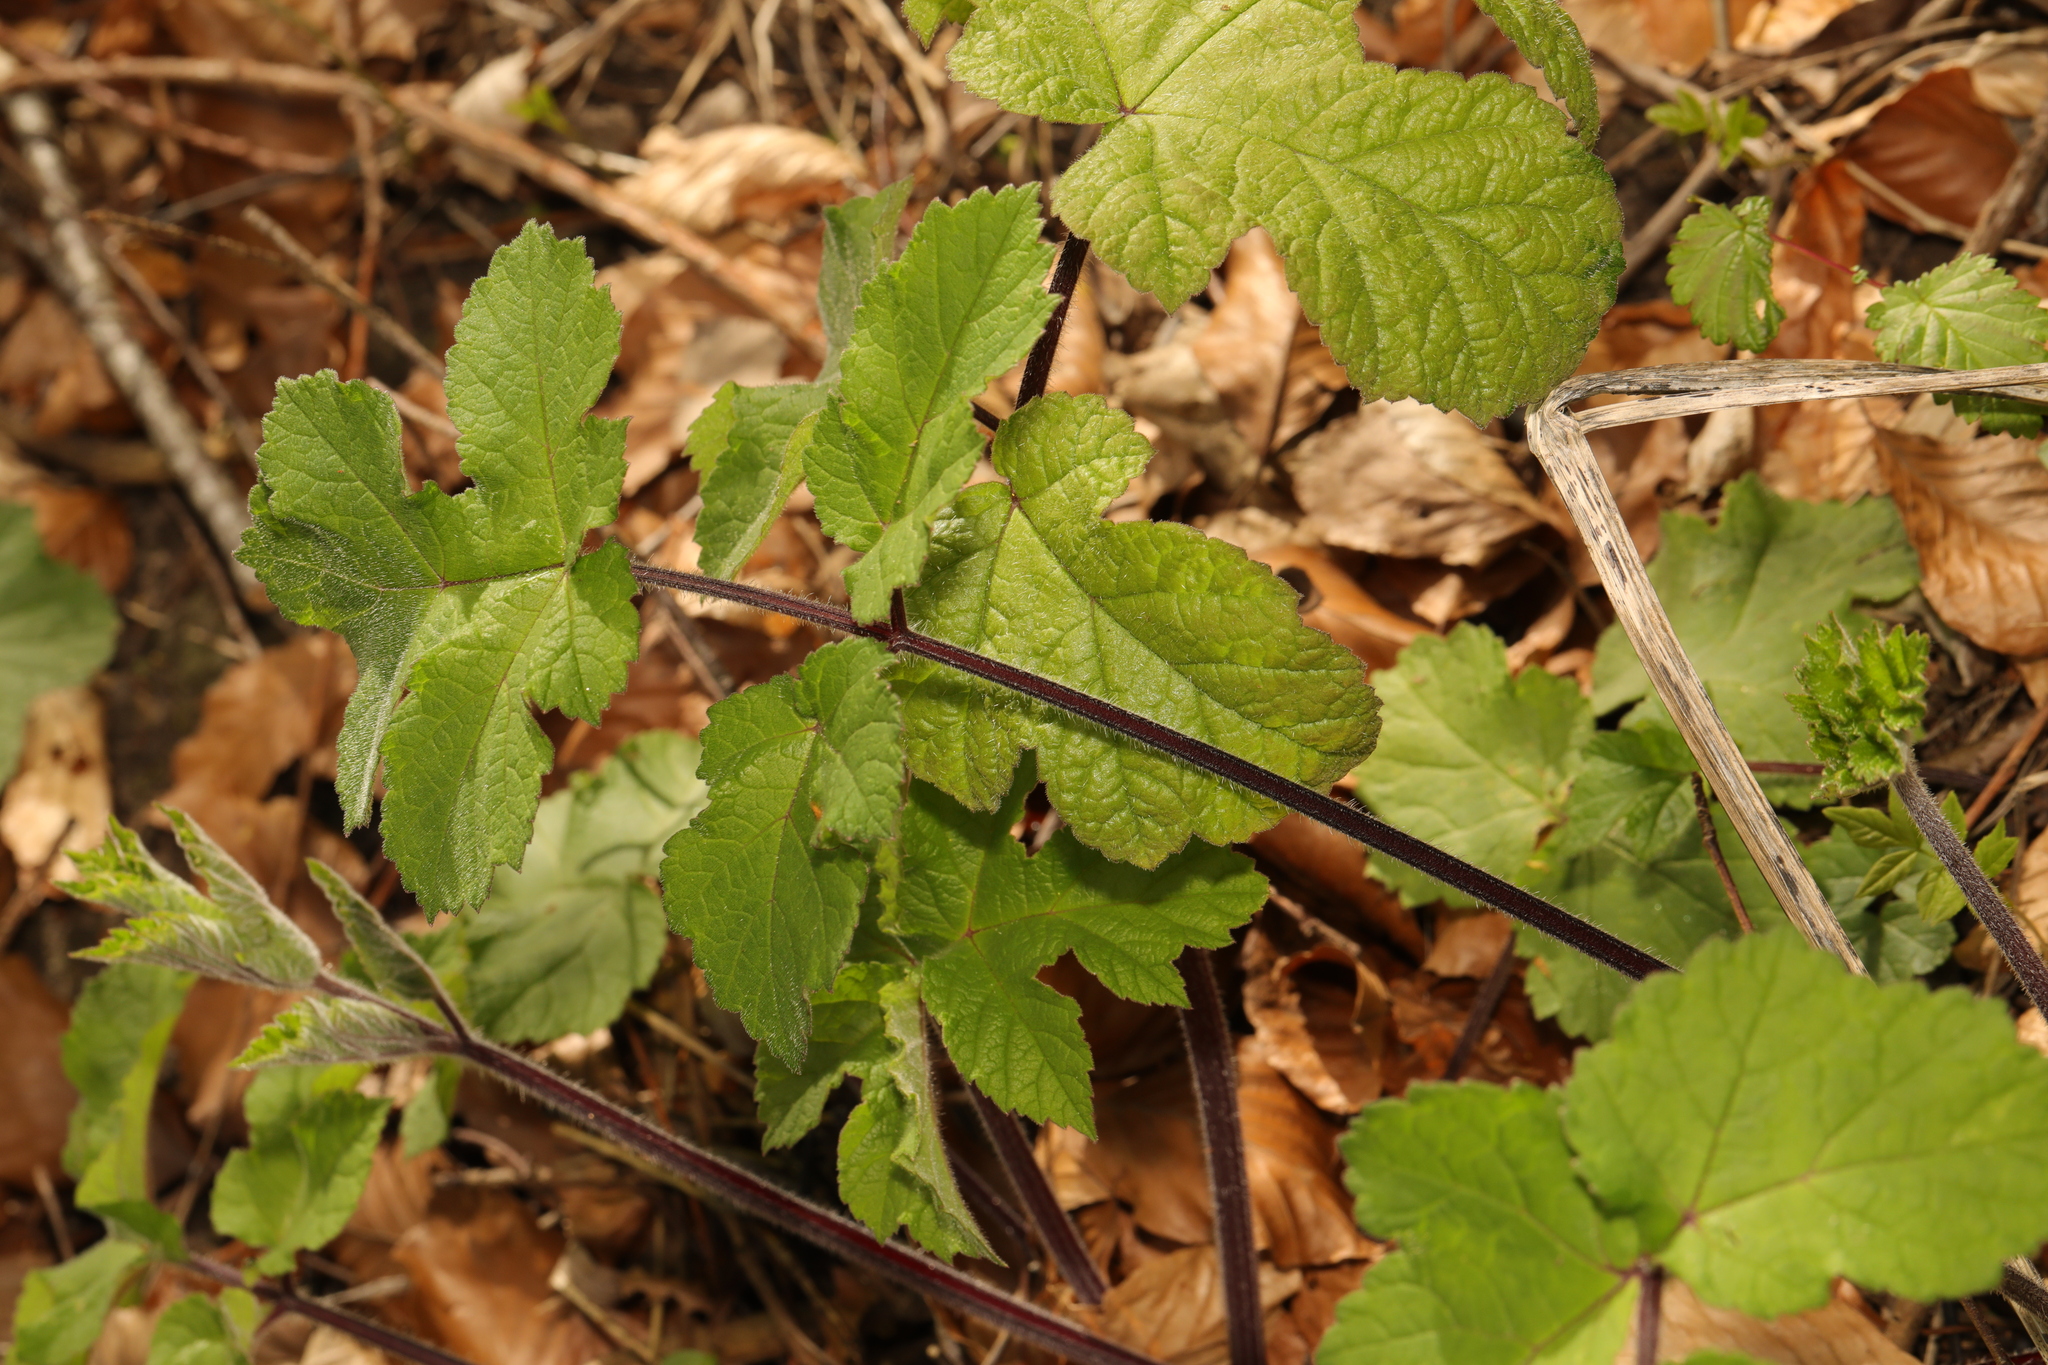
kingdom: Plantae
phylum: Tracheophyta
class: Magnoliopsida
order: Apiales
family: Apiaceae
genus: Heracleum
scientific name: Heracleum sphondylium
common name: Hogweed
